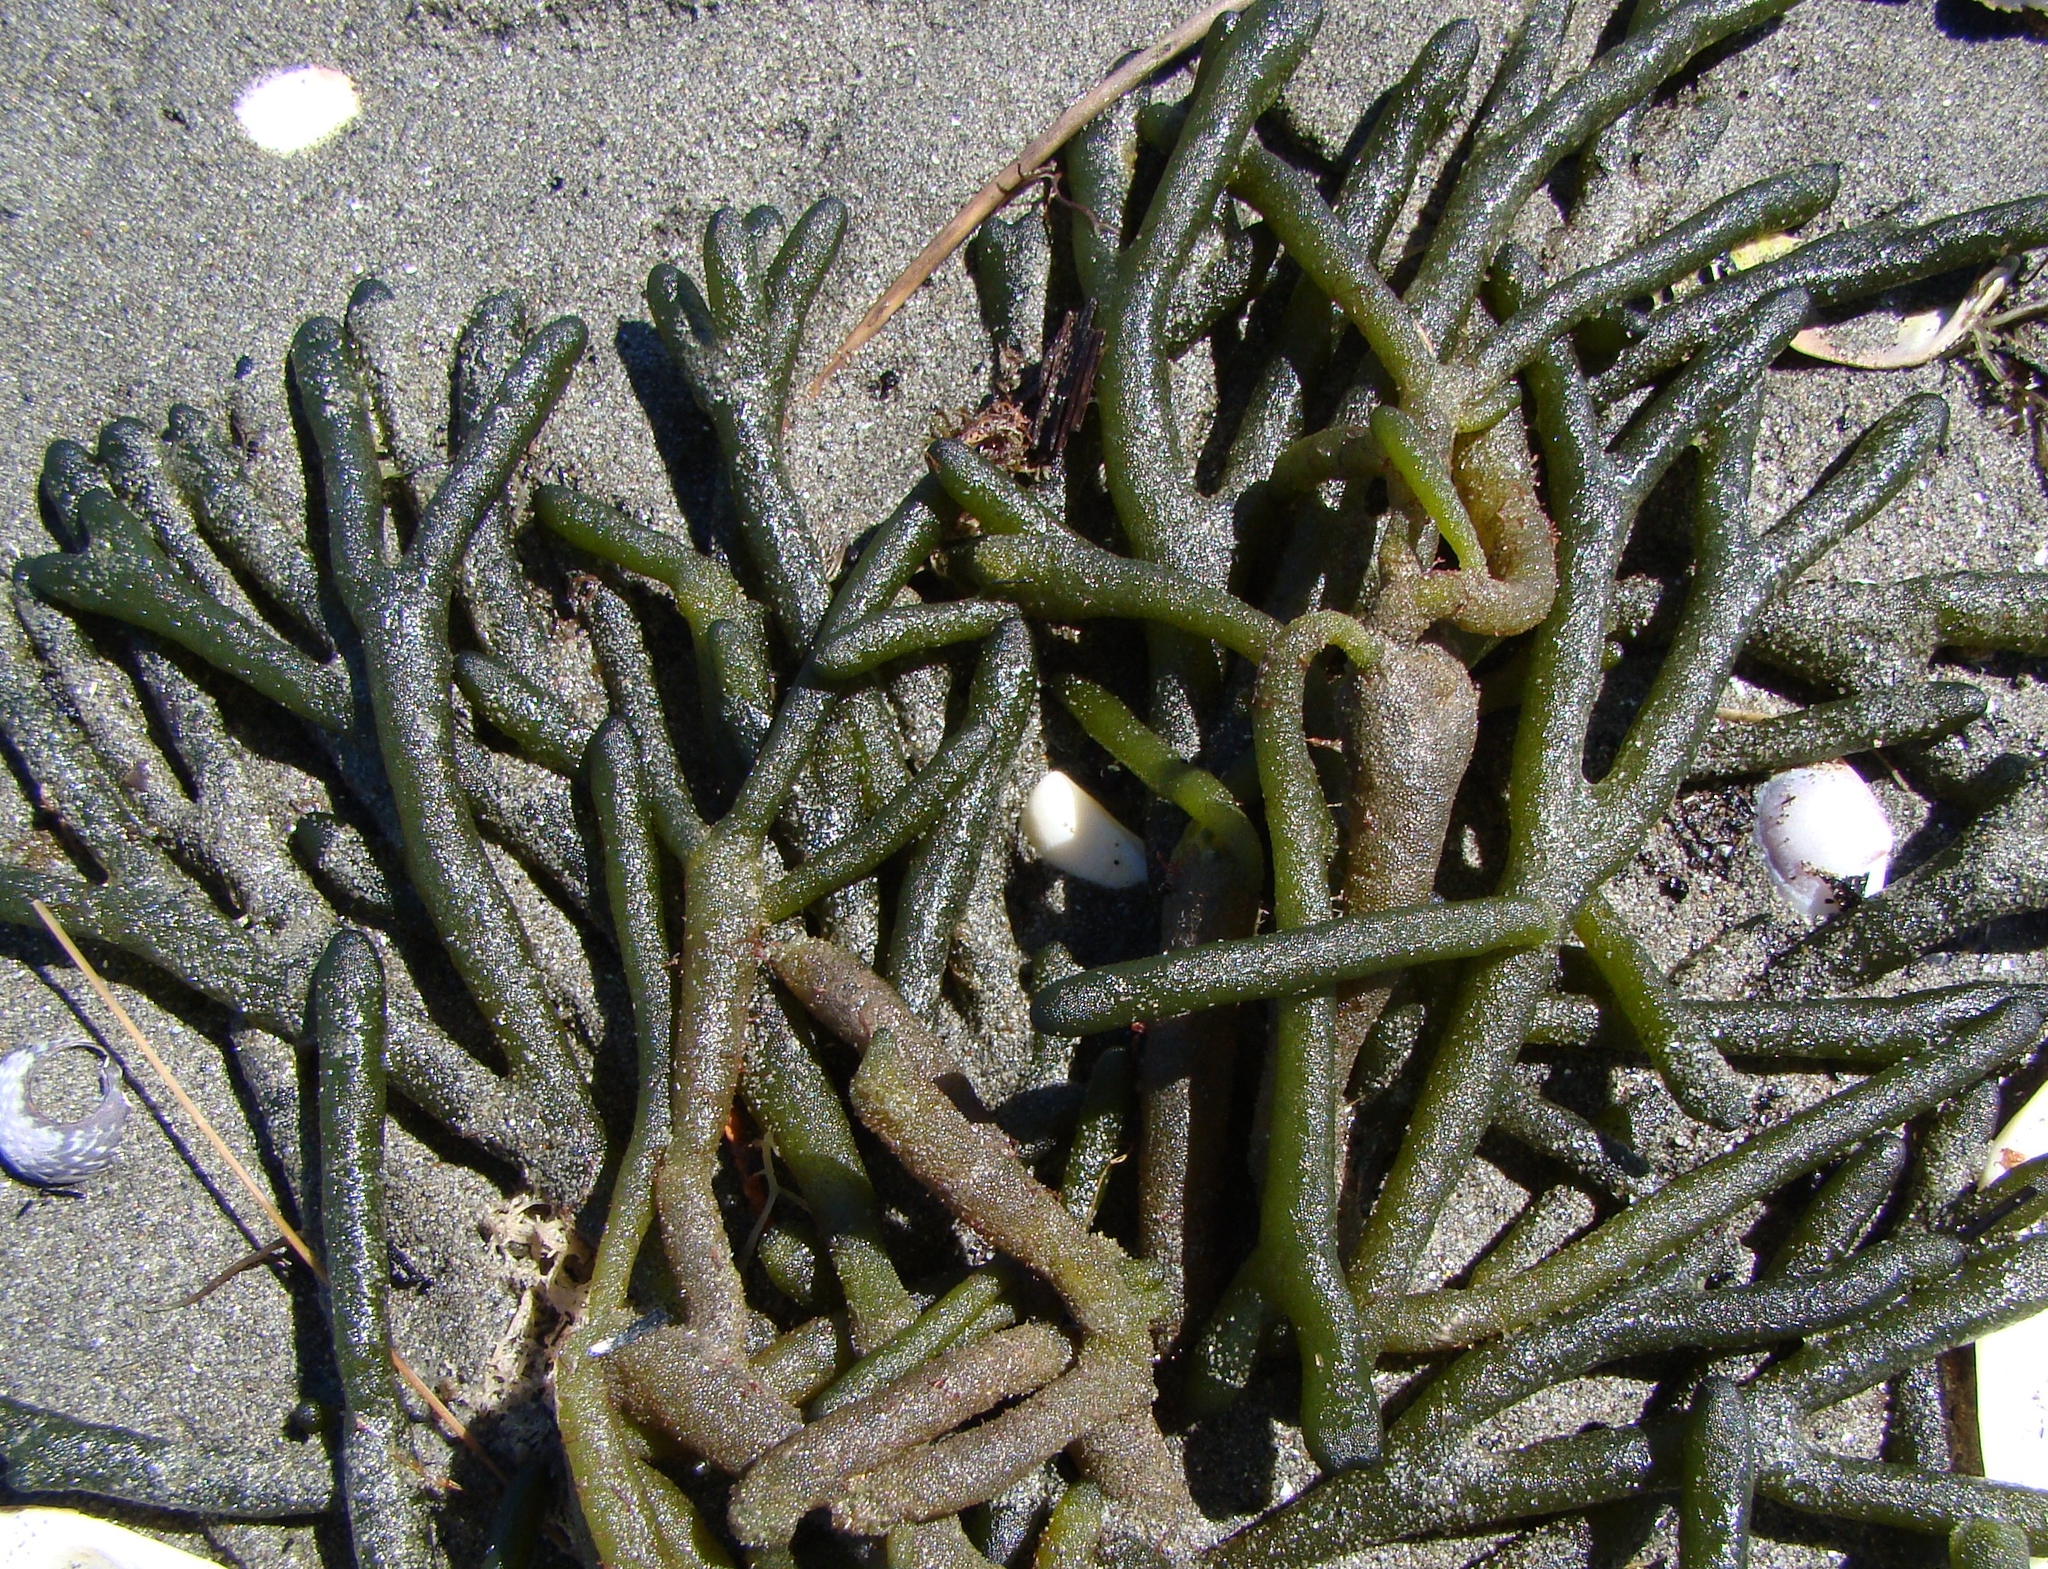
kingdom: Plantae
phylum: Chlorophyta
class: Ulvophyceae
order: Bryopsidales
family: Codiaceae
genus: Codium
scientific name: Codium fragile
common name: Dead man's fingers
